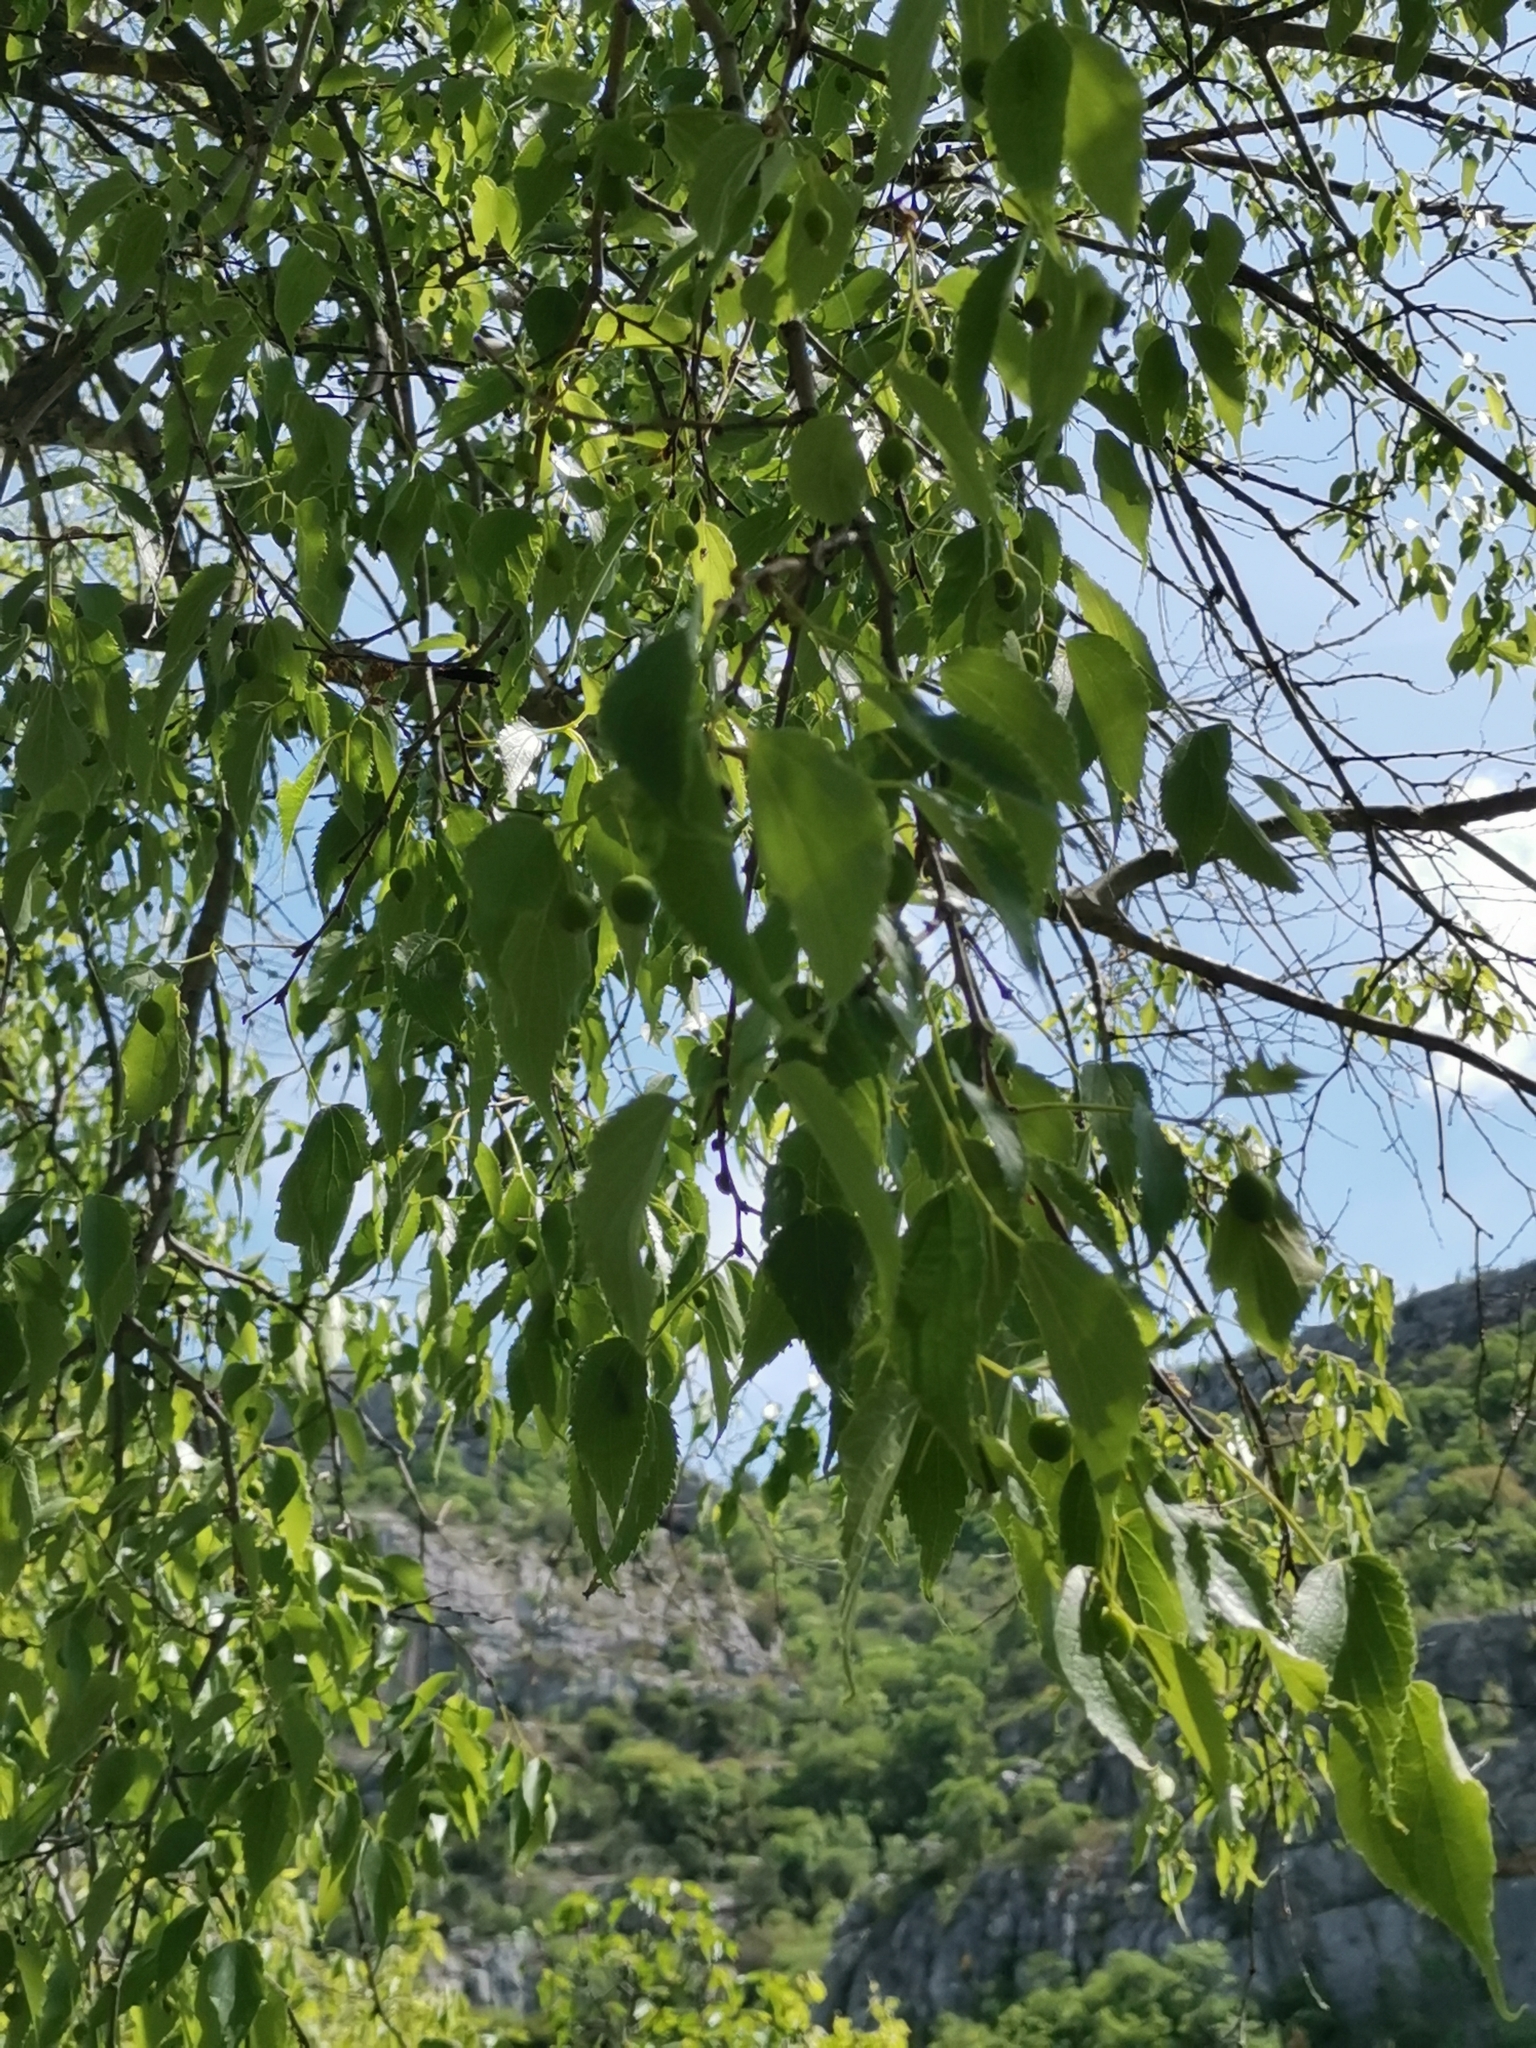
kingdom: Plantae
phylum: Tracheophyta
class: Magnoliopsida
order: Rosales
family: Cannabaceae
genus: Celtis
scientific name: Celtis australis
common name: European hackberry
